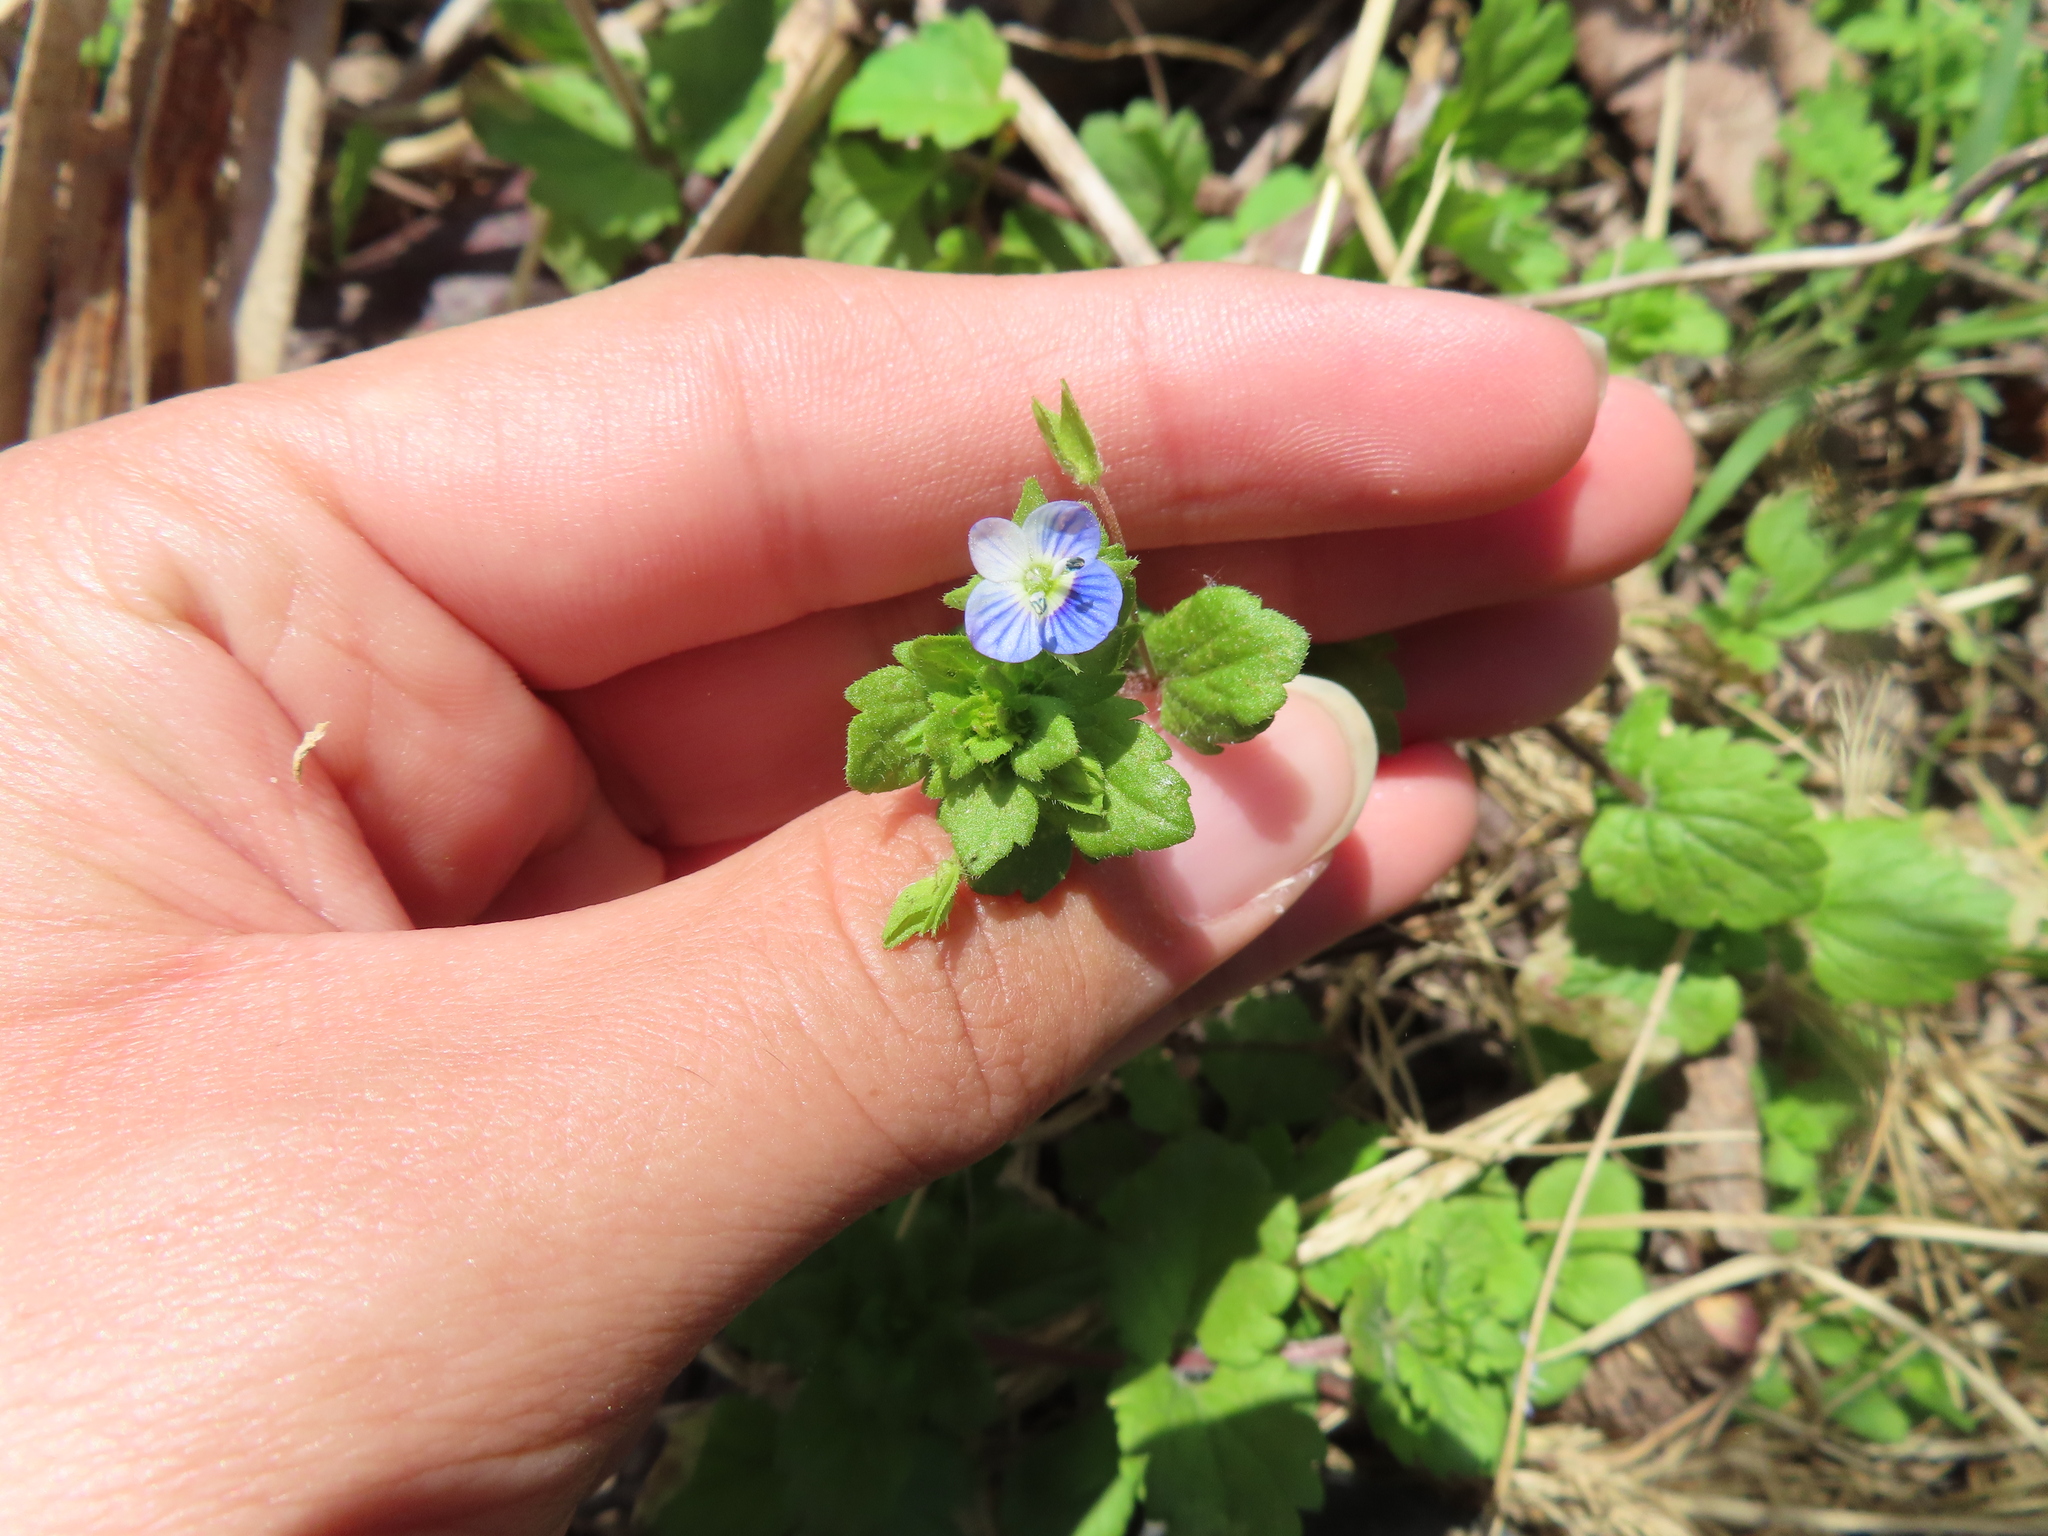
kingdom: Plantae
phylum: Tracheophyta
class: Magnoliopsida
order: Lamiales
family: Plantaginaceae
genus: Veronica
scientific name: Veronica persica
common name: Common field-speedwell
